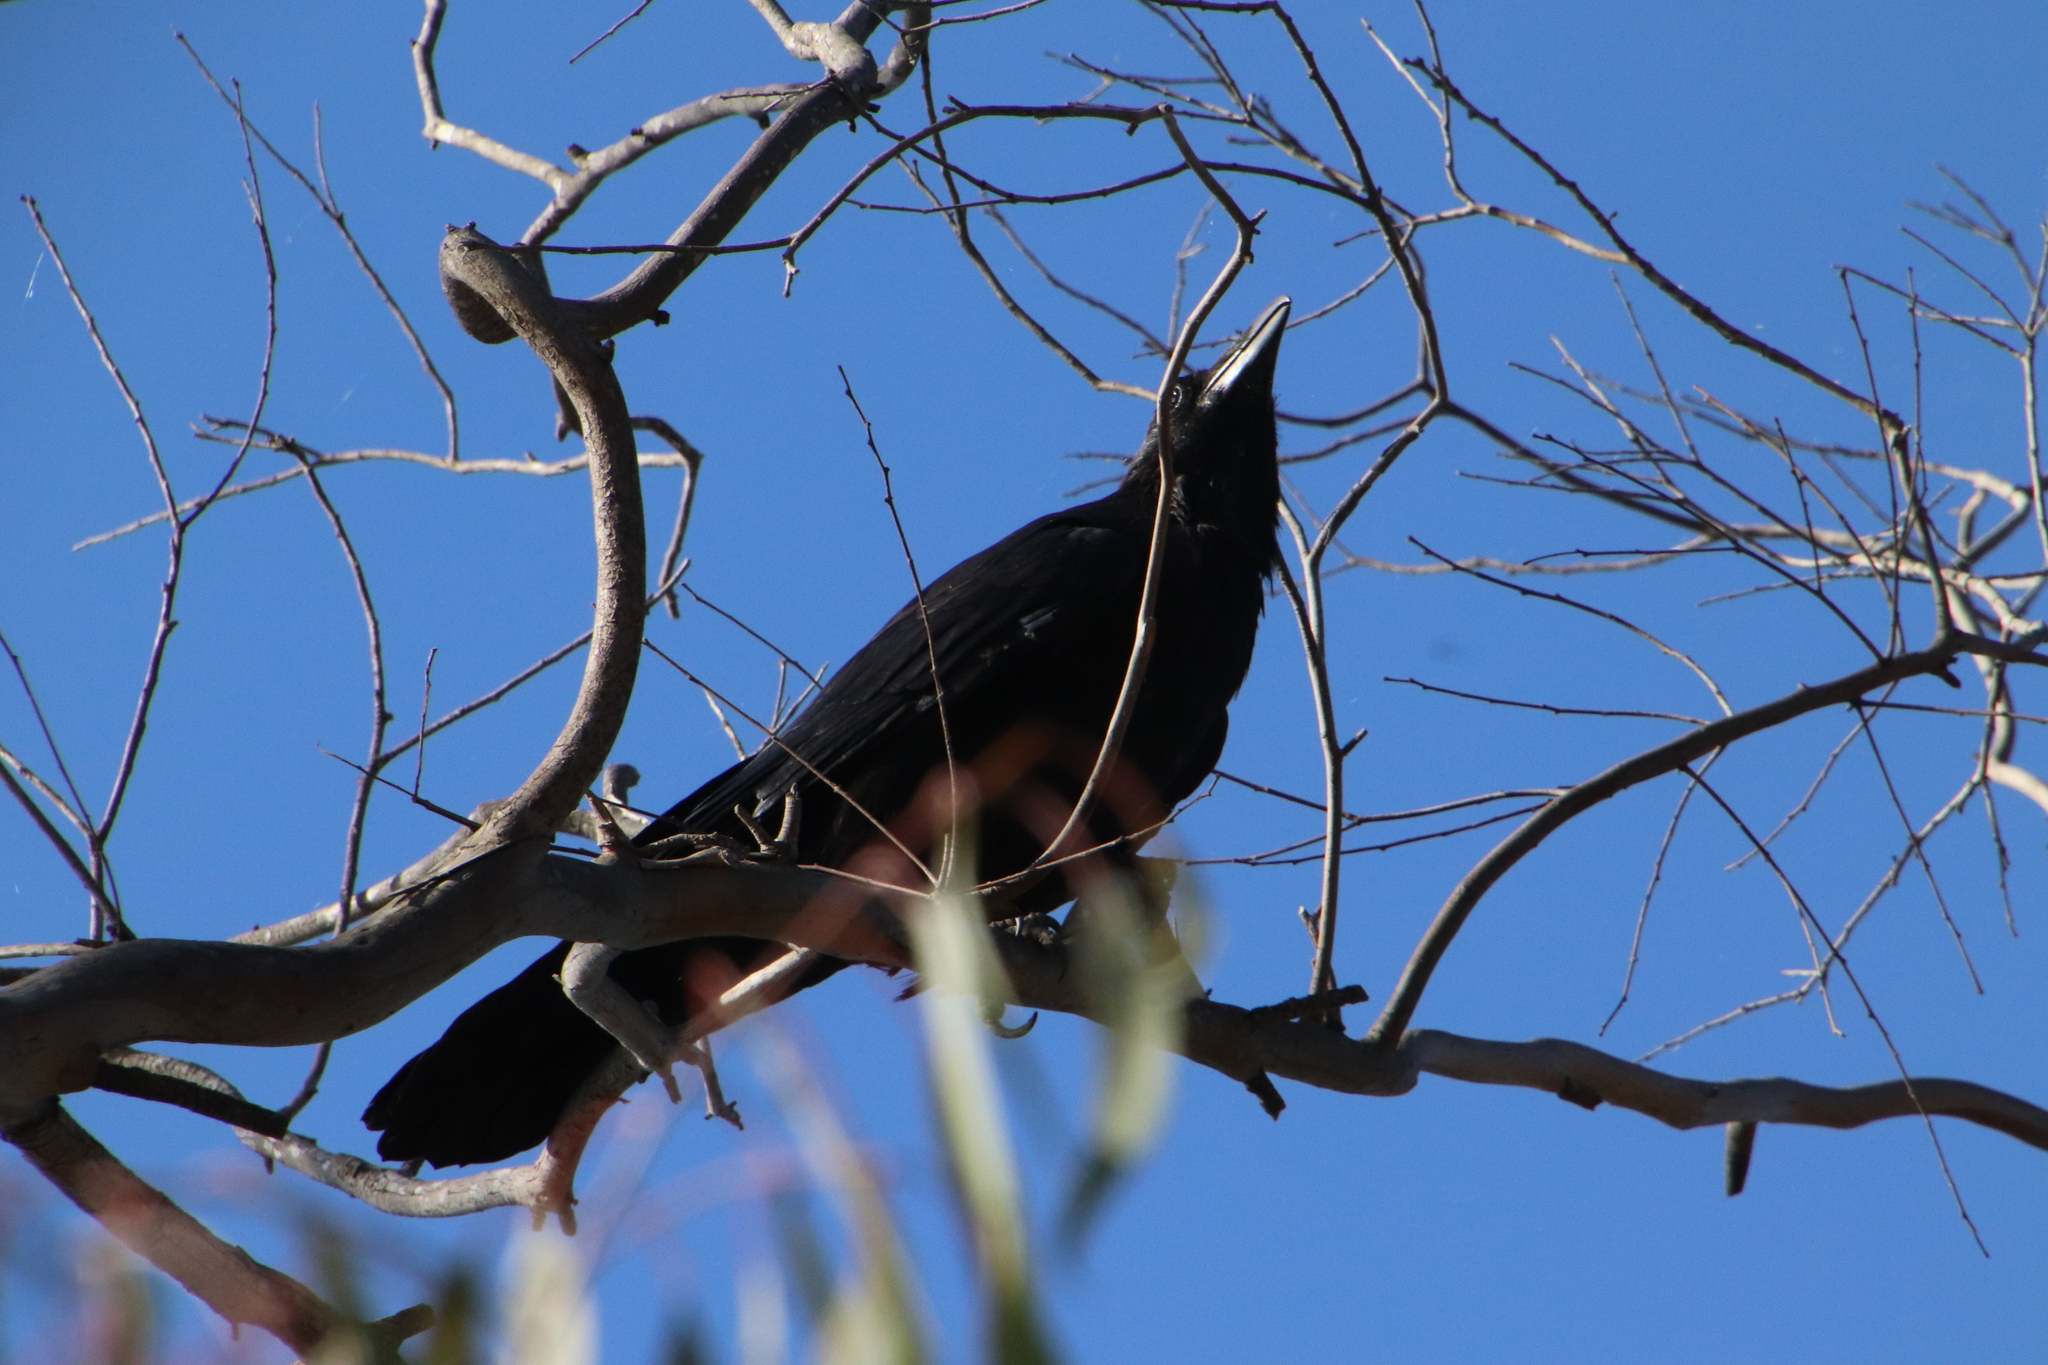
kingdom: Animalia
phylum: Chordata
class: Aves
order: Passeriformes
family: Corvidae
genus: Corvus
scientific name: Corvus corax
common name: Common raven
